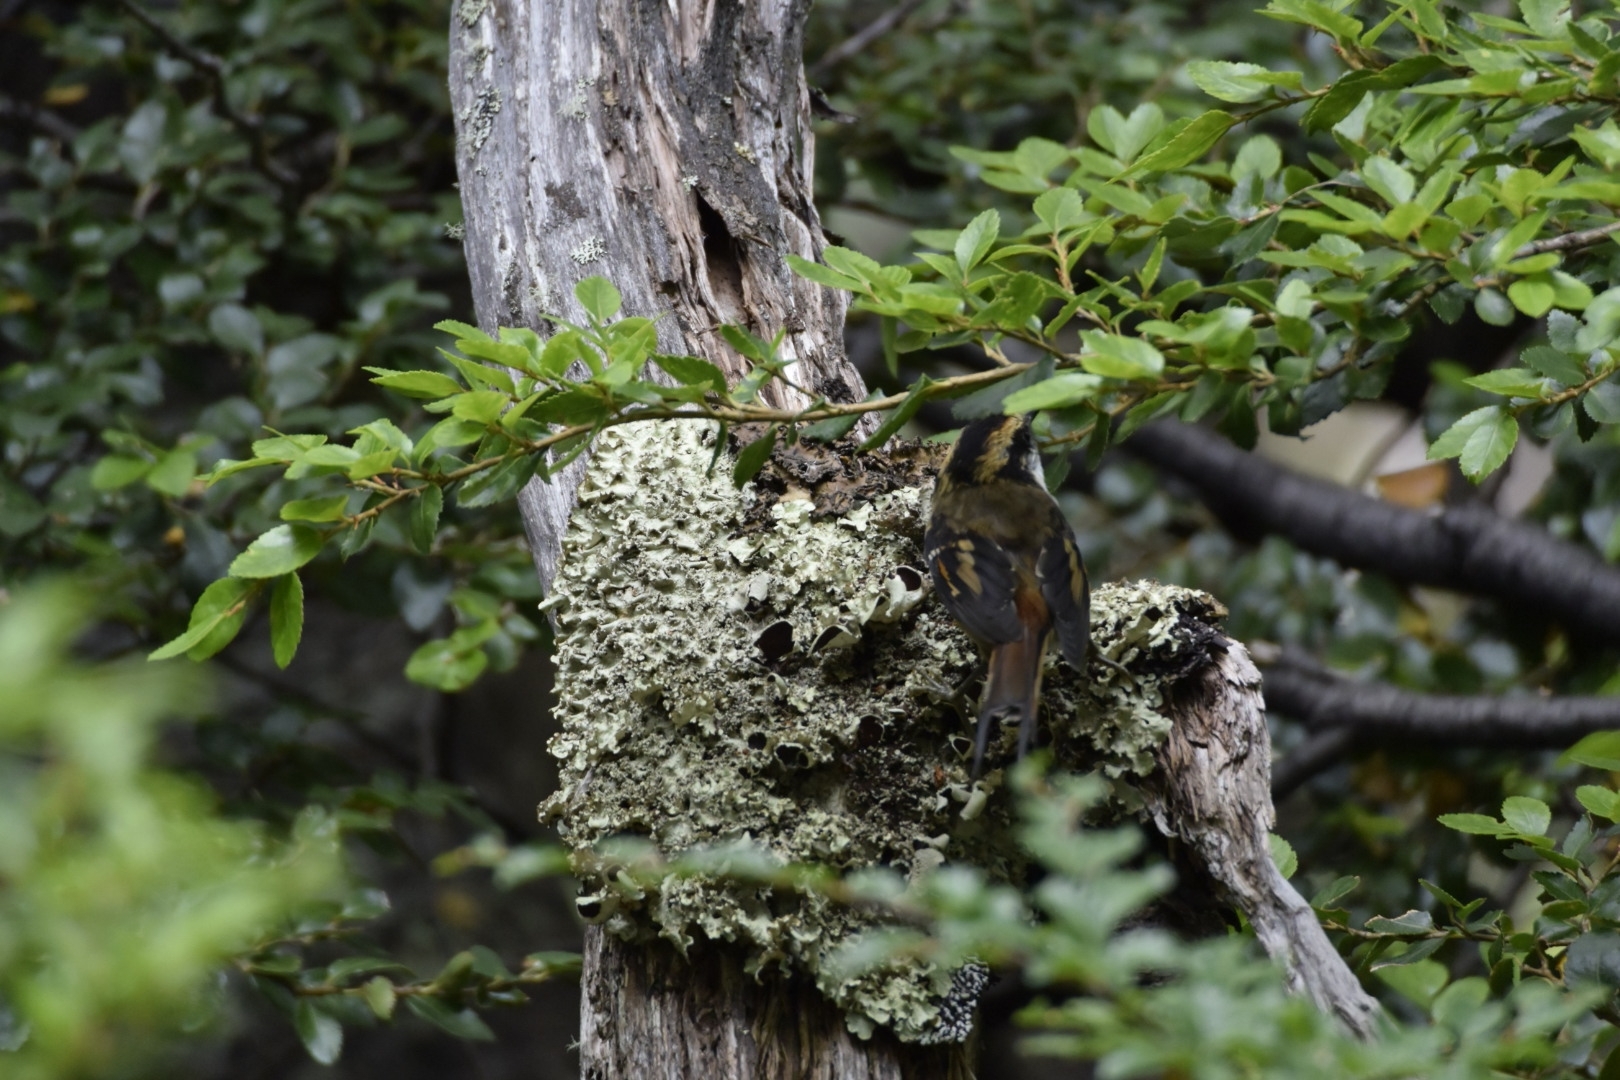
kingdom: Animalia
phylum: Chordata
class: Aves
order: Passeriformes
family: Furnariidae
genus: Aphrastura
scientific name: Aphrastura spinicauda
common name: Thorn-tailed rayadito
